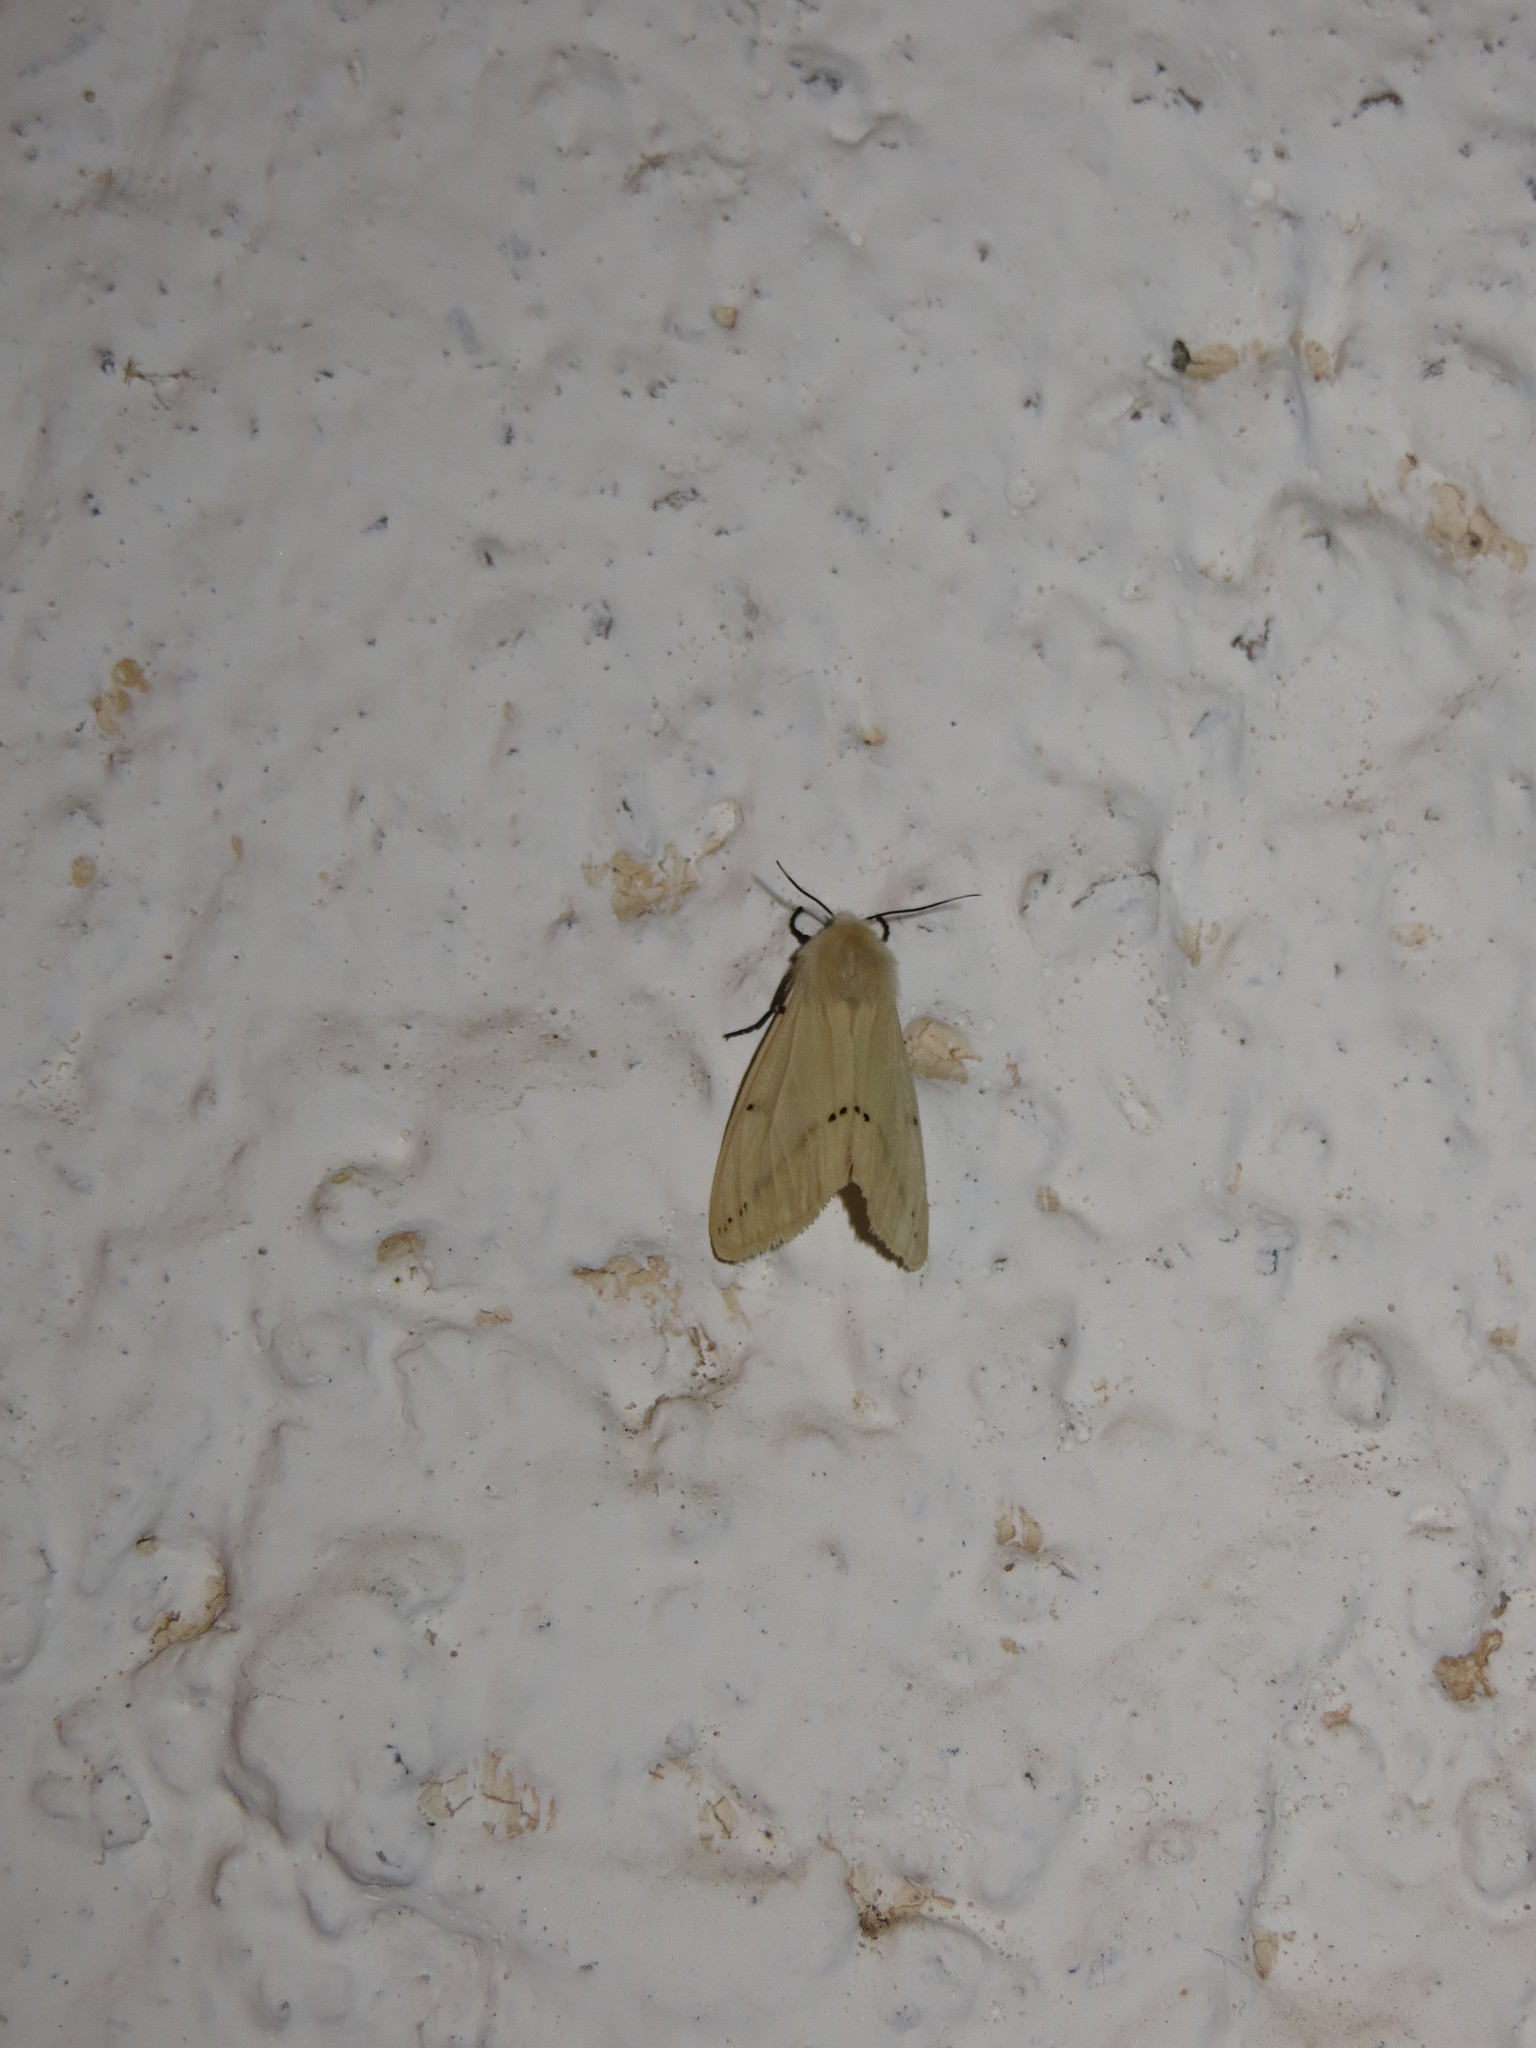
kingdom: Animalia
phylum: Arthropoda
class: Insecta
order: Lepidoptera
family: Erebidae
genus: Spilarctia
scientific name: Spilarctia lutea
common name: Buff ermine
